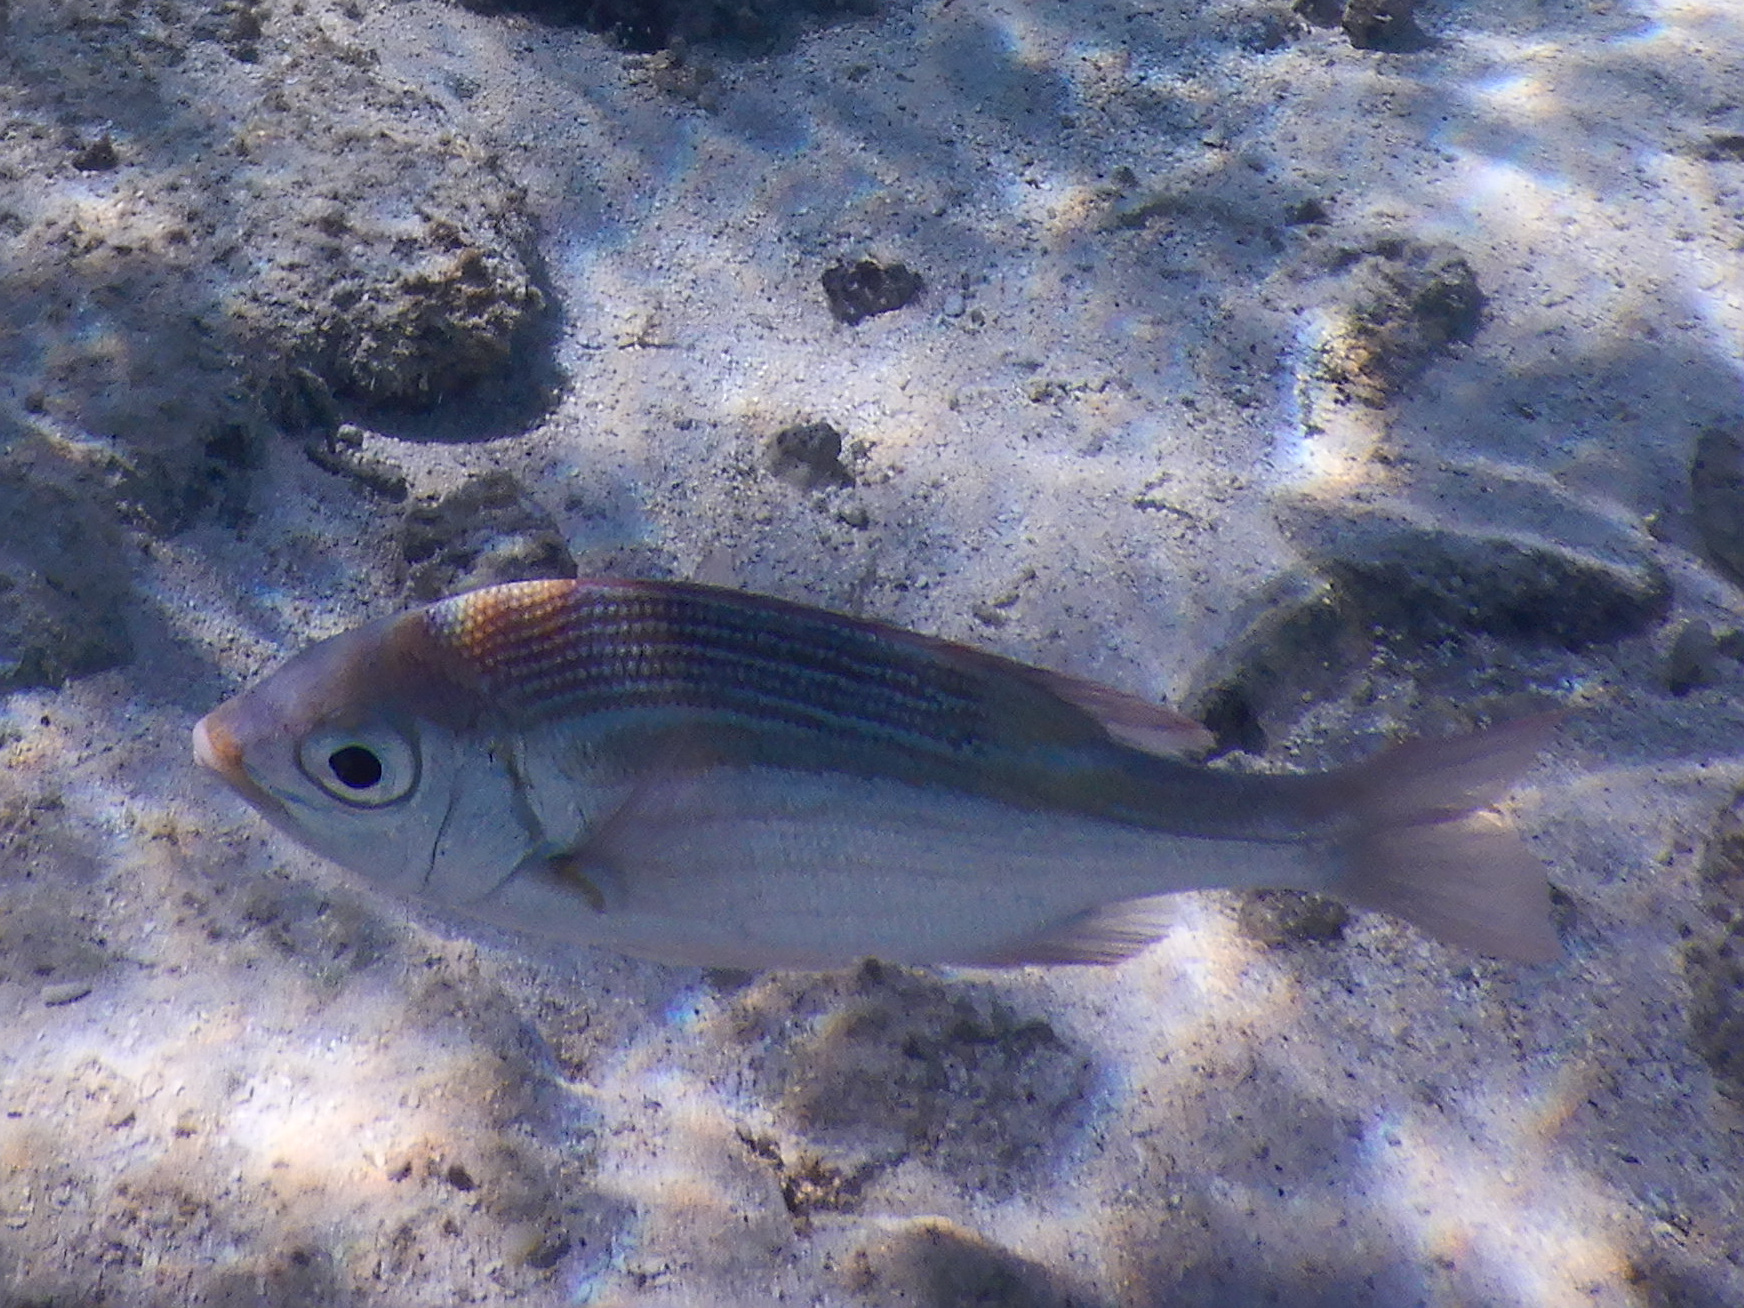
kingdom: Animalia
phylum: Chordata
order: Perciformes
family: Lethrinidae
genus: Gnathodentex
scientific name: Gnathodentex aureolineatus
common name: Gold-lined sea bream
